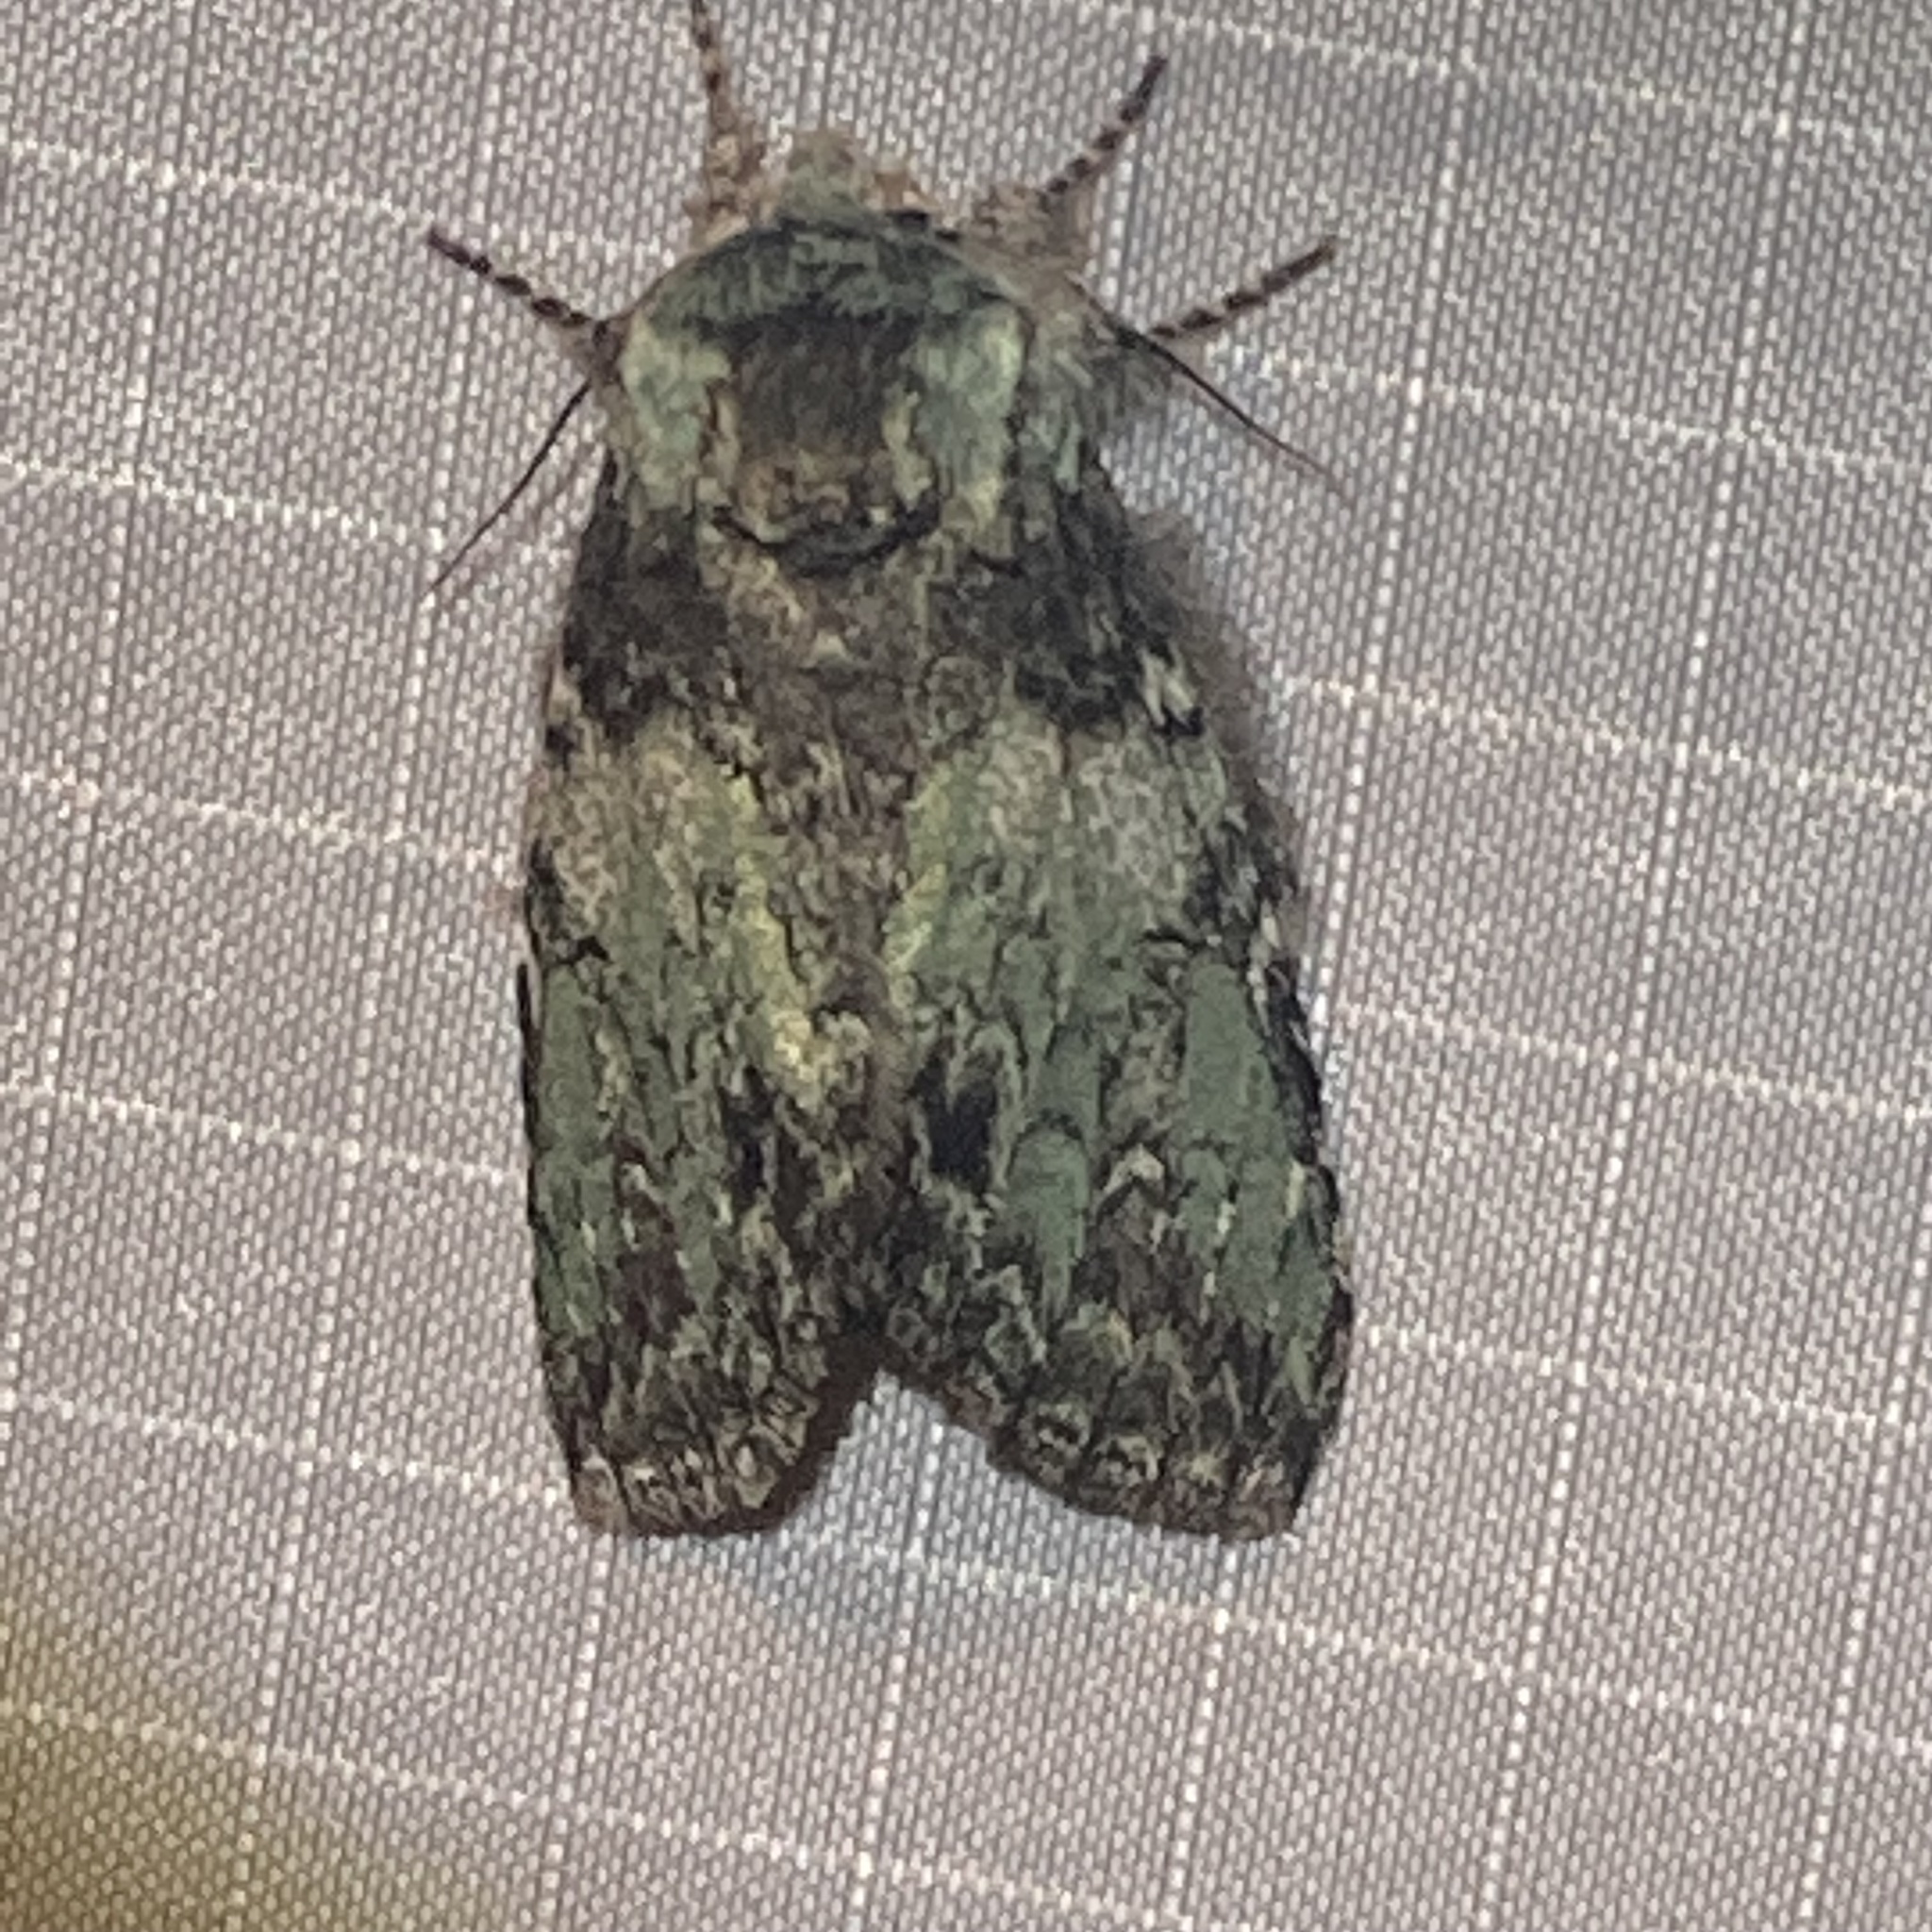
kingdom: Animalia
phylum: Arthropoda
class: Insecta
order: Lepidoptera
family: Notodontidae
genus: Macrurocampa
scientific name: Macrurocampa marthesia
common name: Mottled prominent
